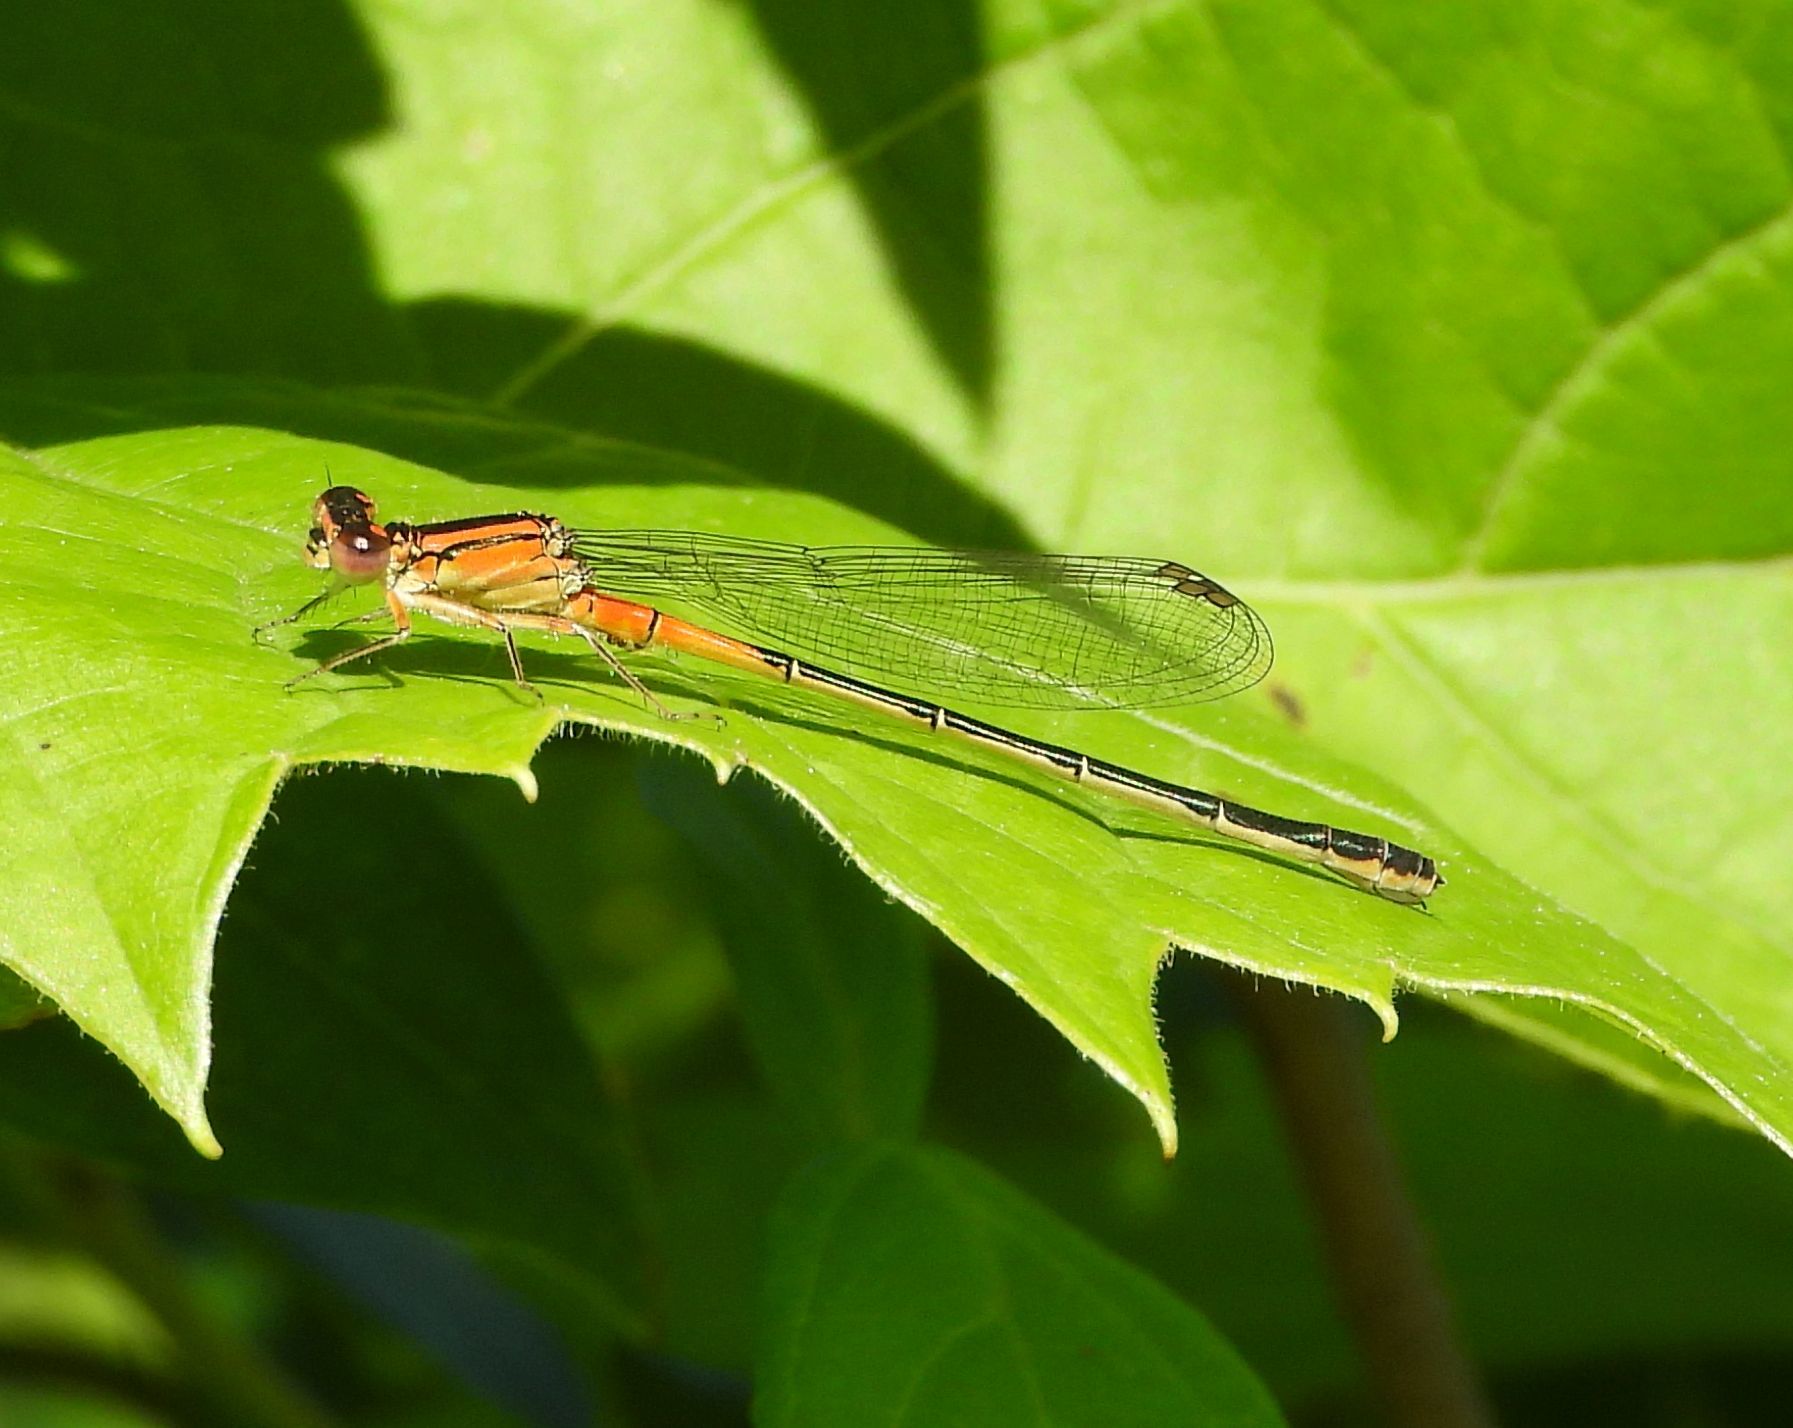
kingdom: Animalia
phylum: Arthropoda
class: Insecta
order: Odonata
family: Coenagrionidae
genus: Ischnura
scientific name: Ischnura verticalis
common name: Eastern forktail
